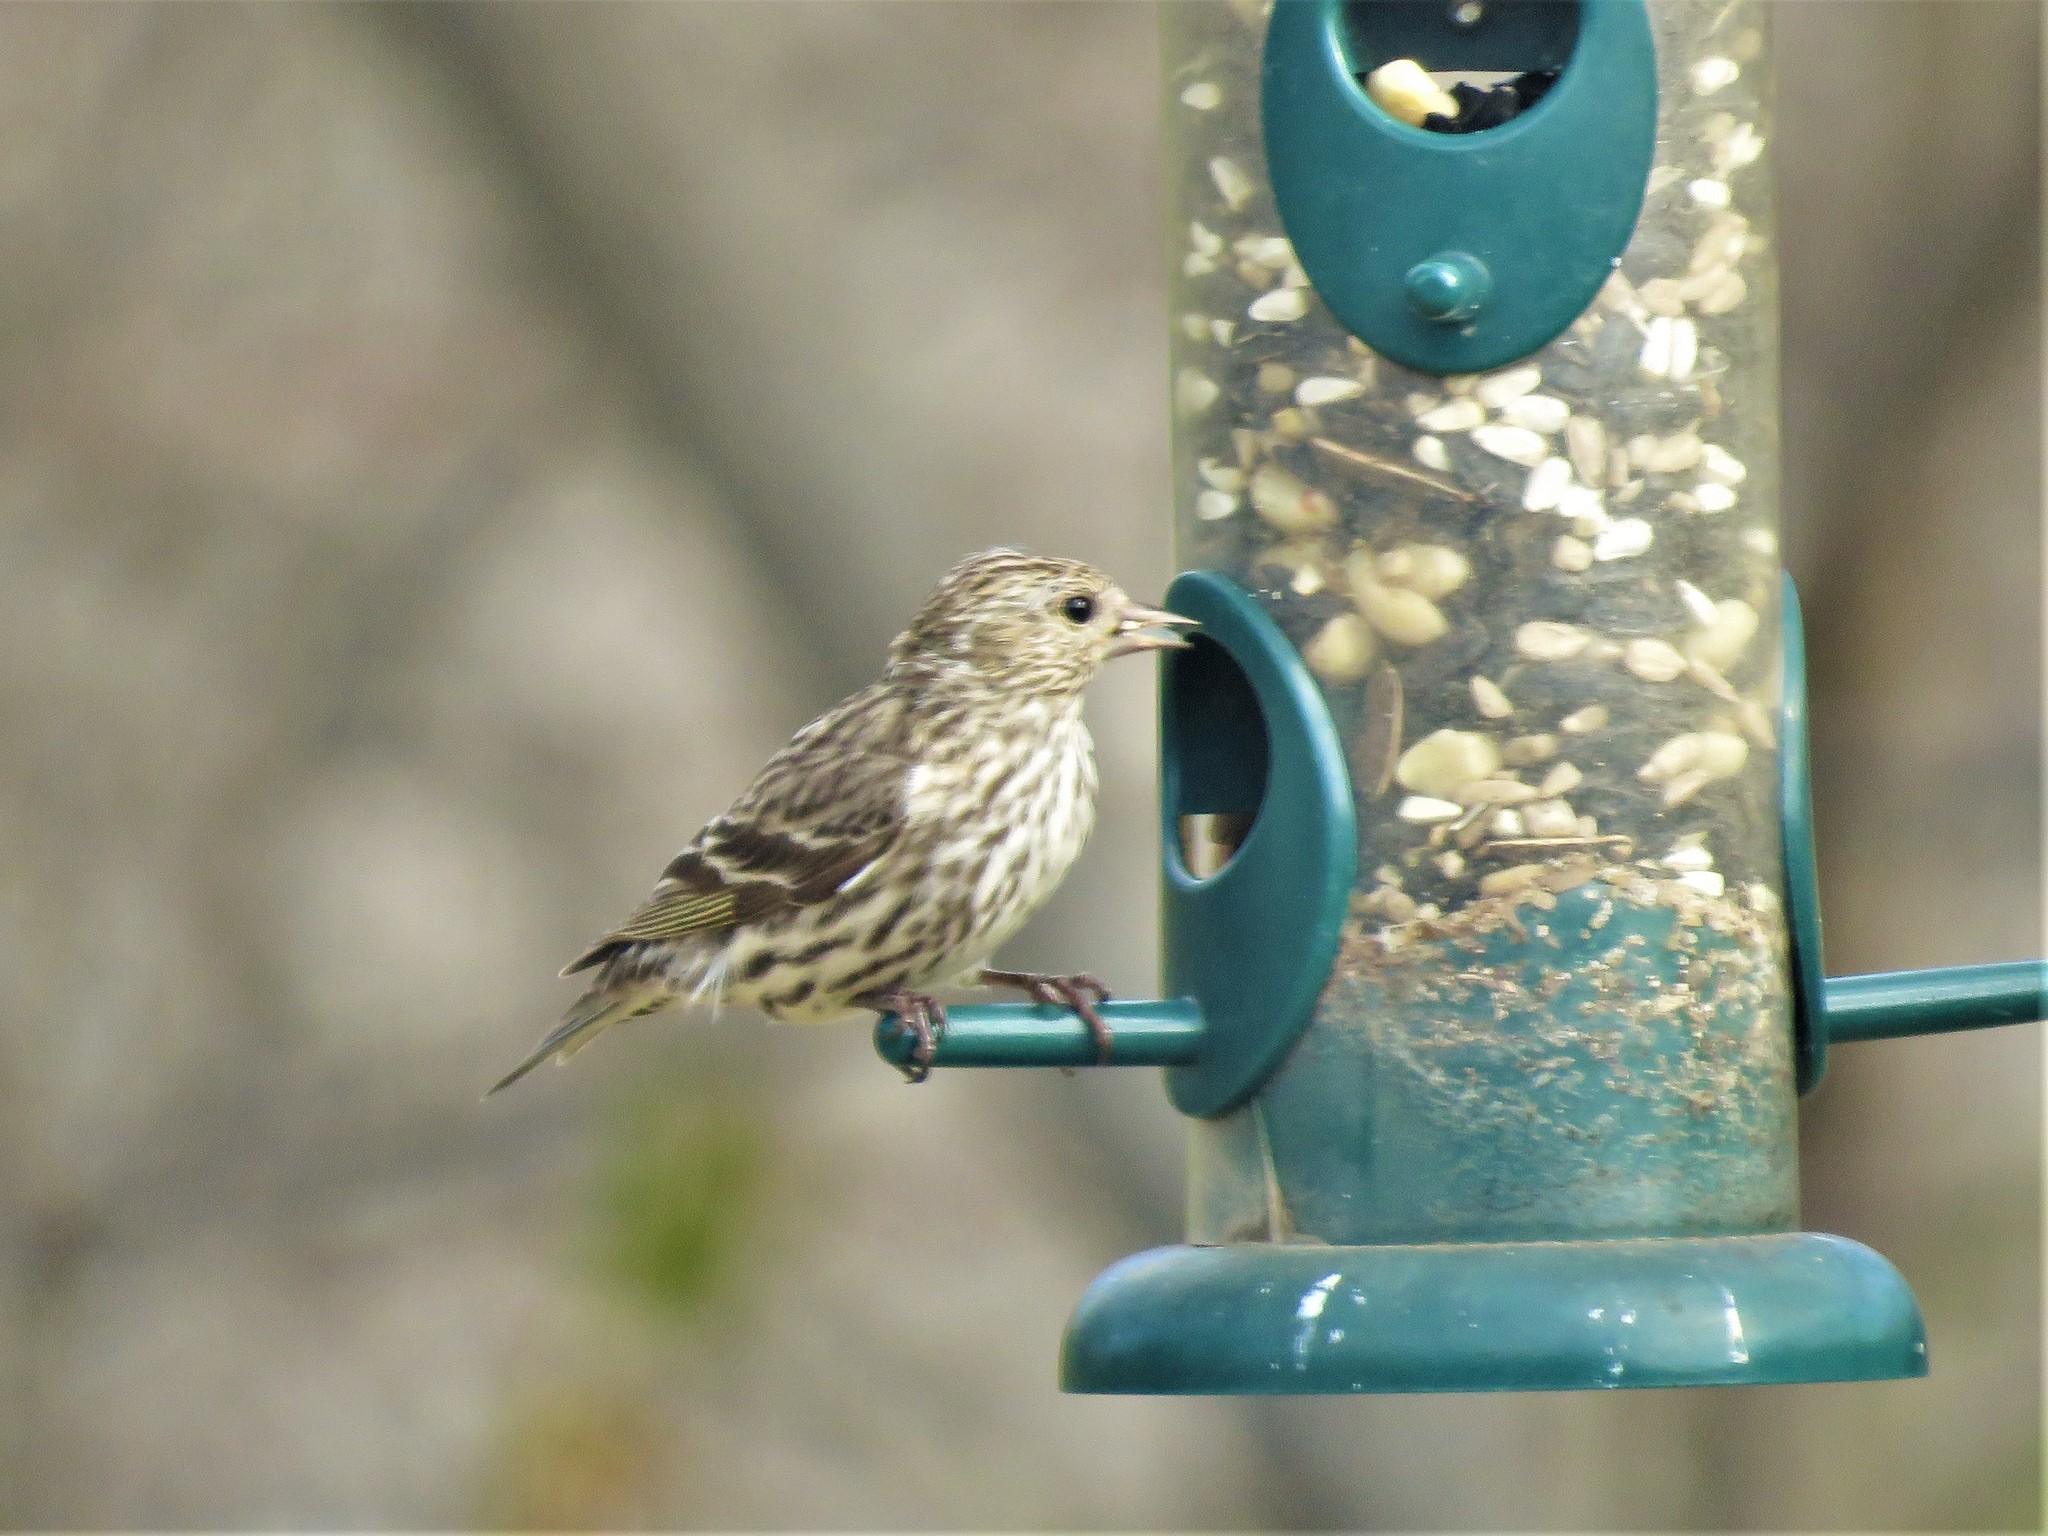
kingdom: Animalia
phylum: Chordata
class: Aves
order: Passeriformes
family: Fringillidae
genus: Spinus
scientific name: Spinus pinus
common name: Pine siskin
